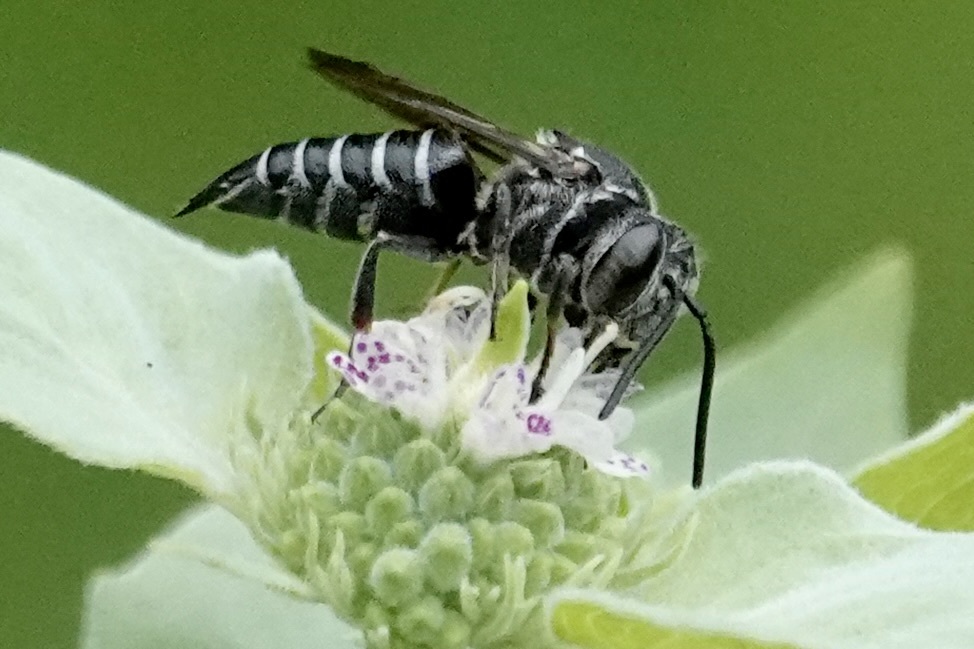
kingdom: Animalia
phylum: Arthropoda
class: Insecta
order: Hymenoptera
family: Megachilidae
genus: Coelioxys
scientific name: Coelioxys sayi
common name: Say's cuckoo leaf-cutter bee
